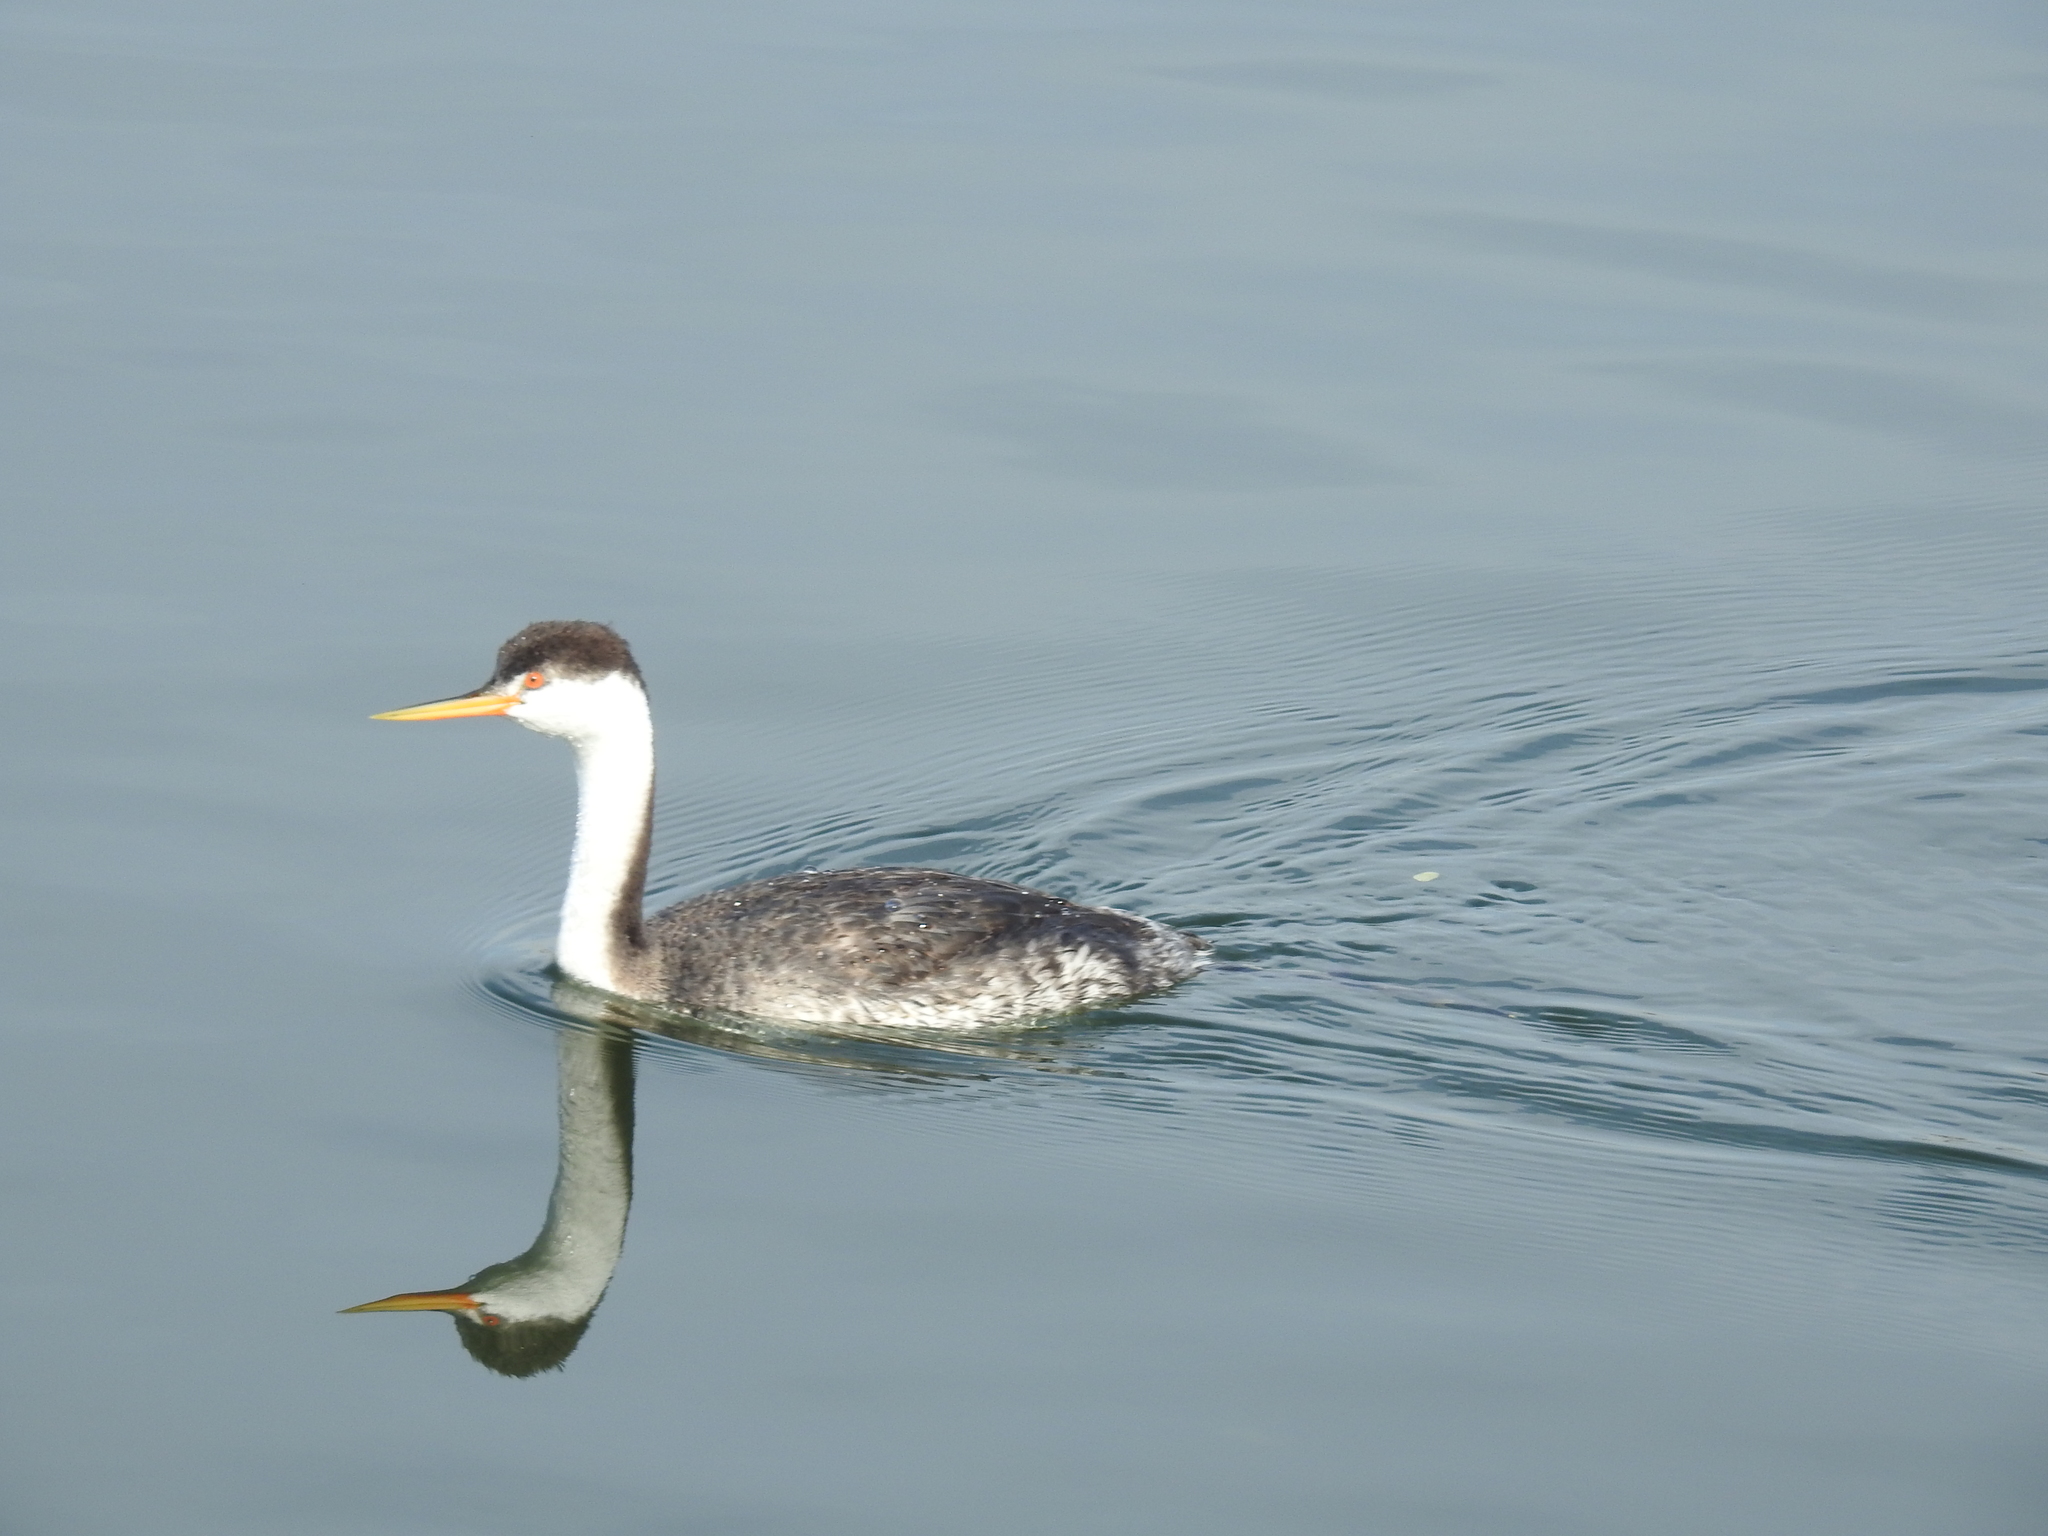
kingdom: Animalia
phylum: Chordata
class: Aves
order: Podicipediformes
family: Podicipedidae
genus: Aechmophorus
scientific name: Aechmophorus clarkii
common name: Clark's grebe
